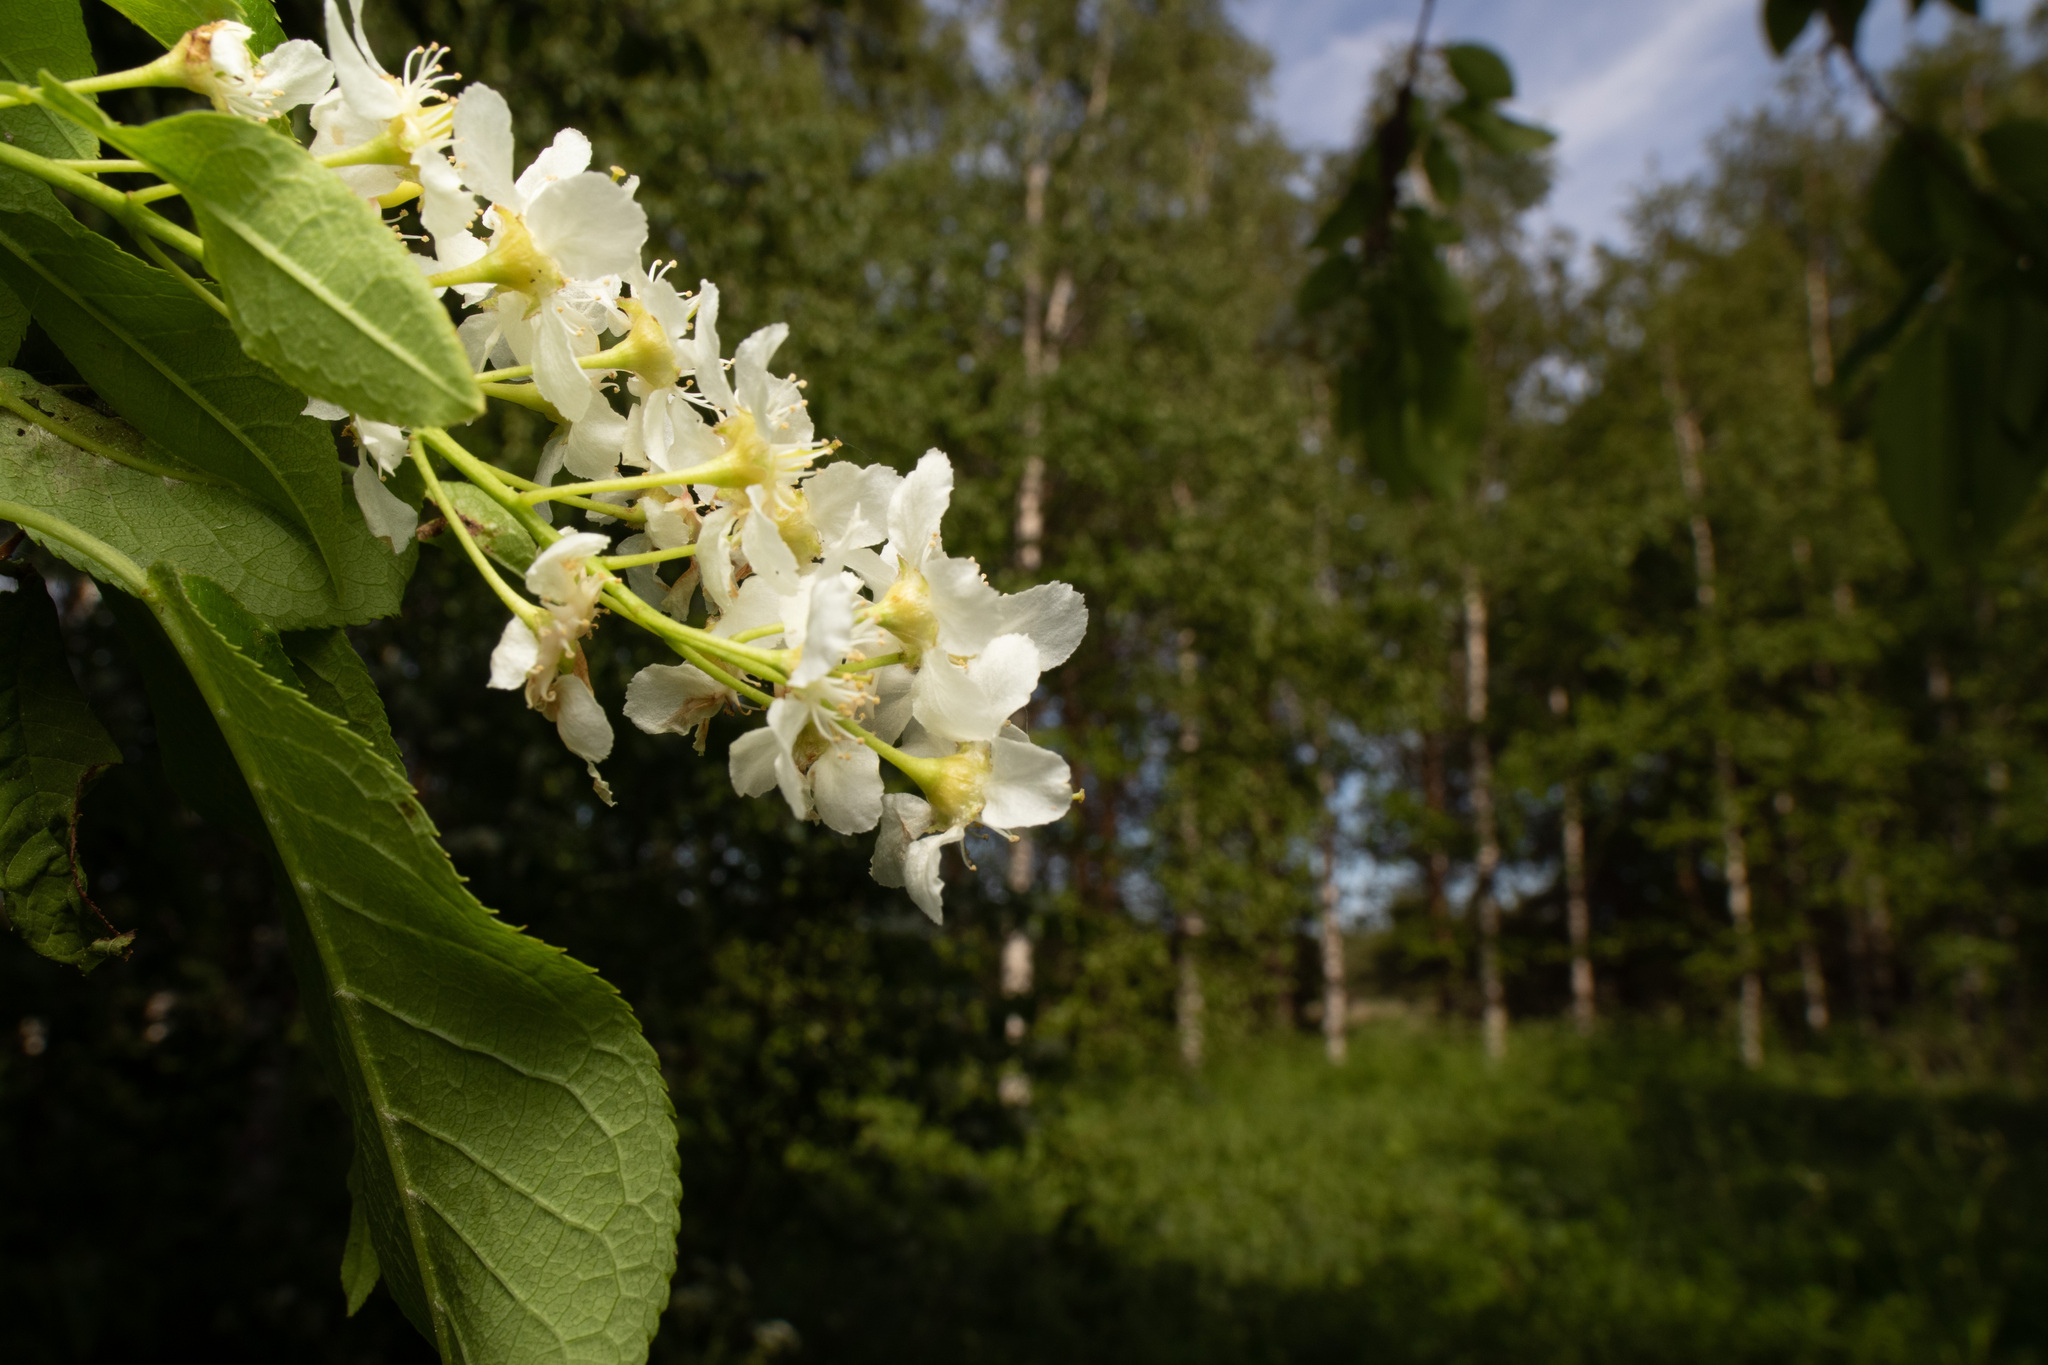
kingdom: Plantae
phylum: Tracheophyta
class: Magnoliopsida
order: Rosales
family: Rosaceae
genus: Prunus
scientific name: Prunus padus
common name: Bird cherry
